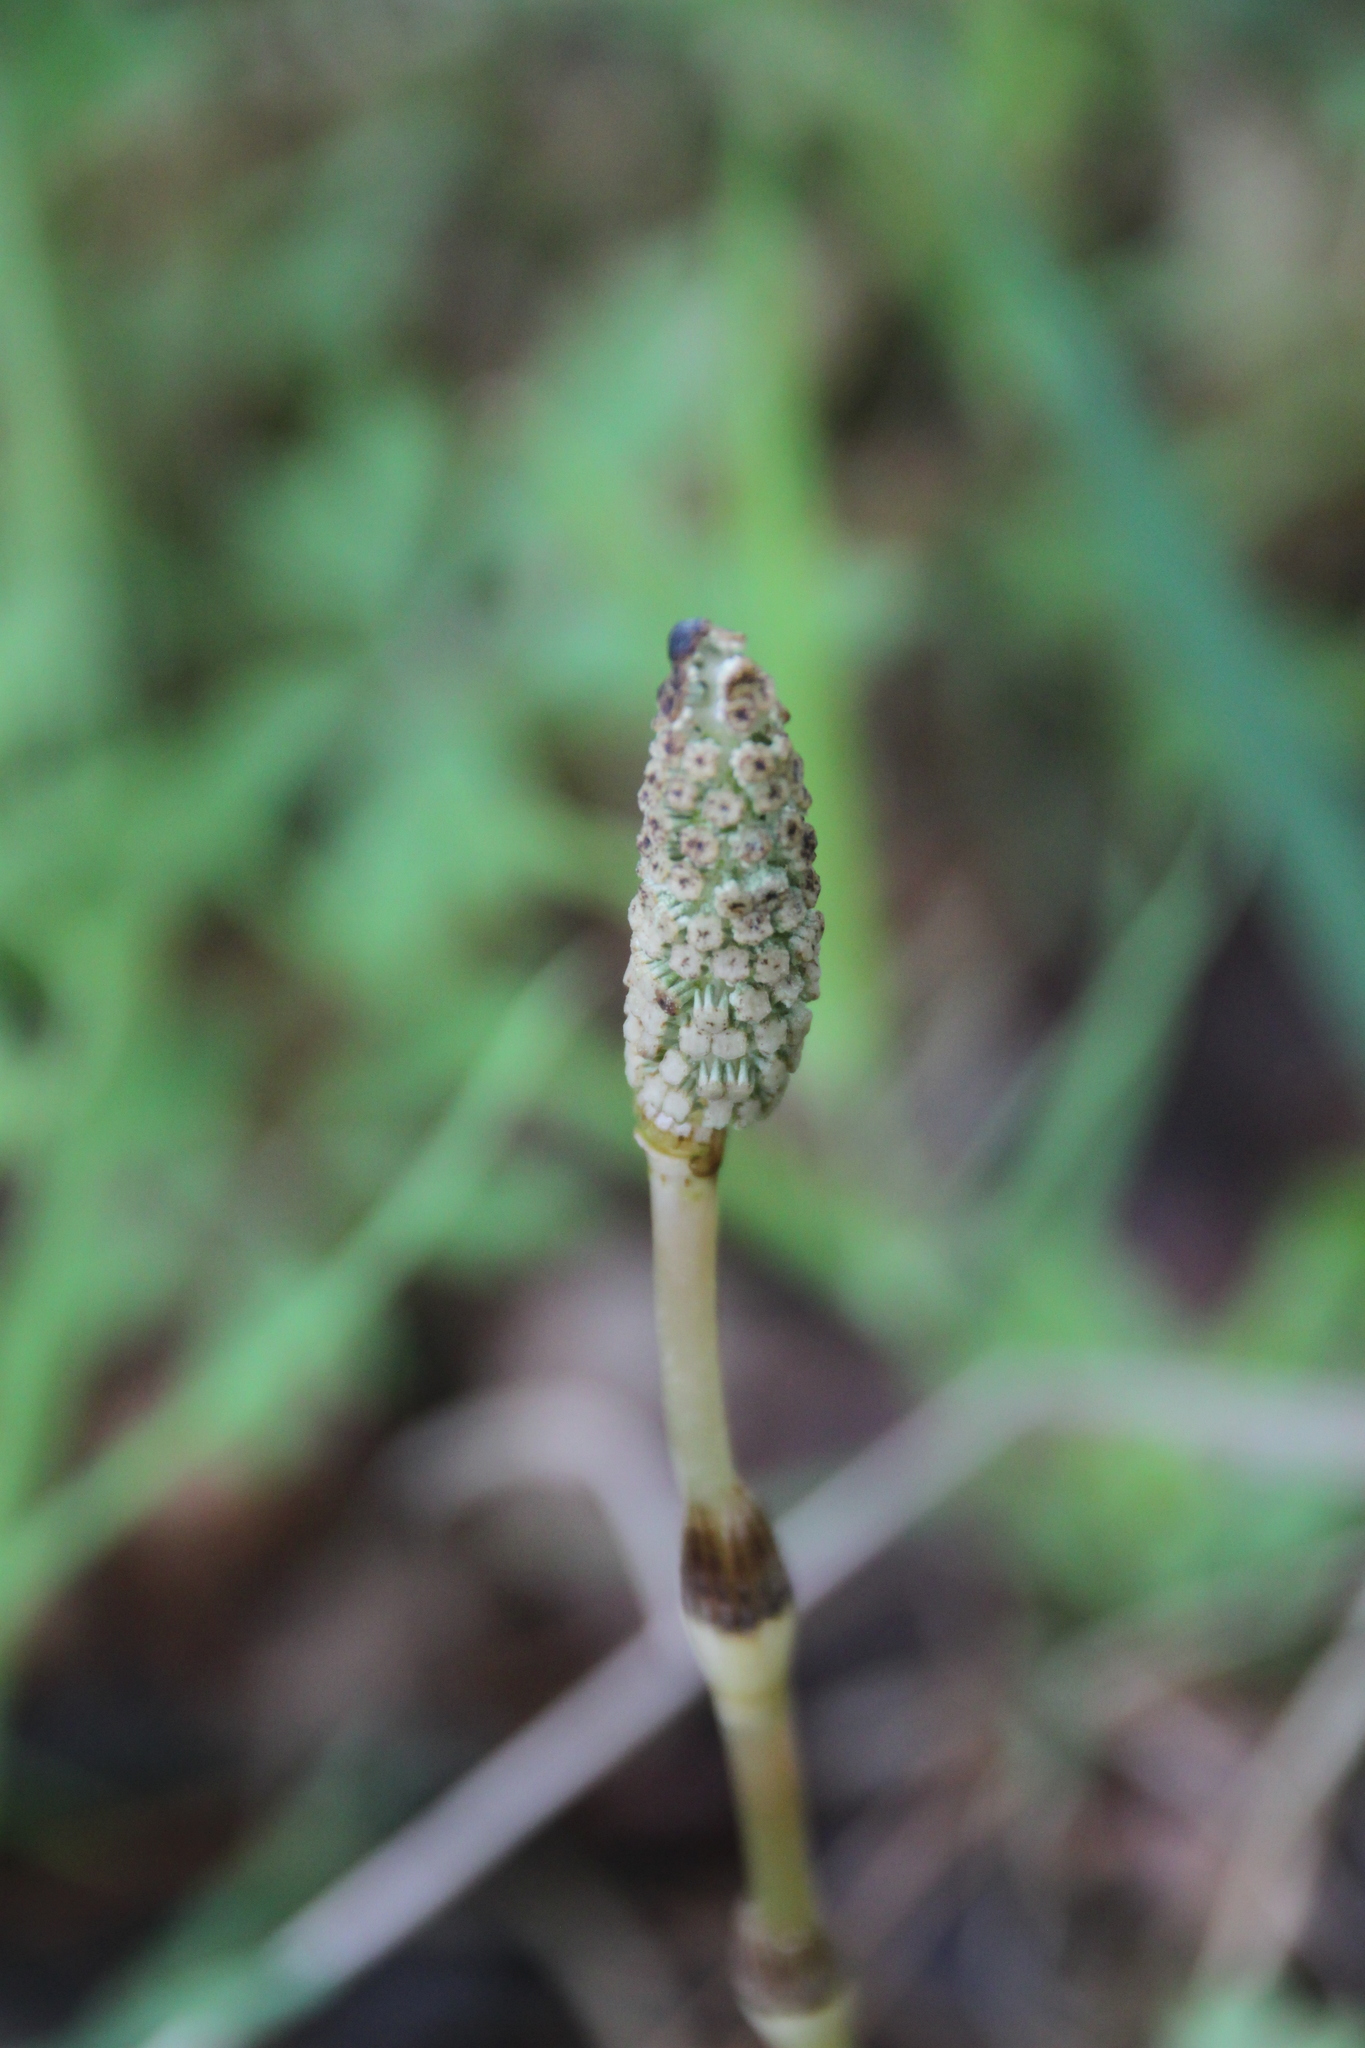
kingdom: Plantae
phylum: Tracheophyta
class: Polypodiopsida
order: Equisetales
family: Equisetaceae
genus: Equisetum
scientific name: Equisetum pratense
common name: Meadow horsetail
